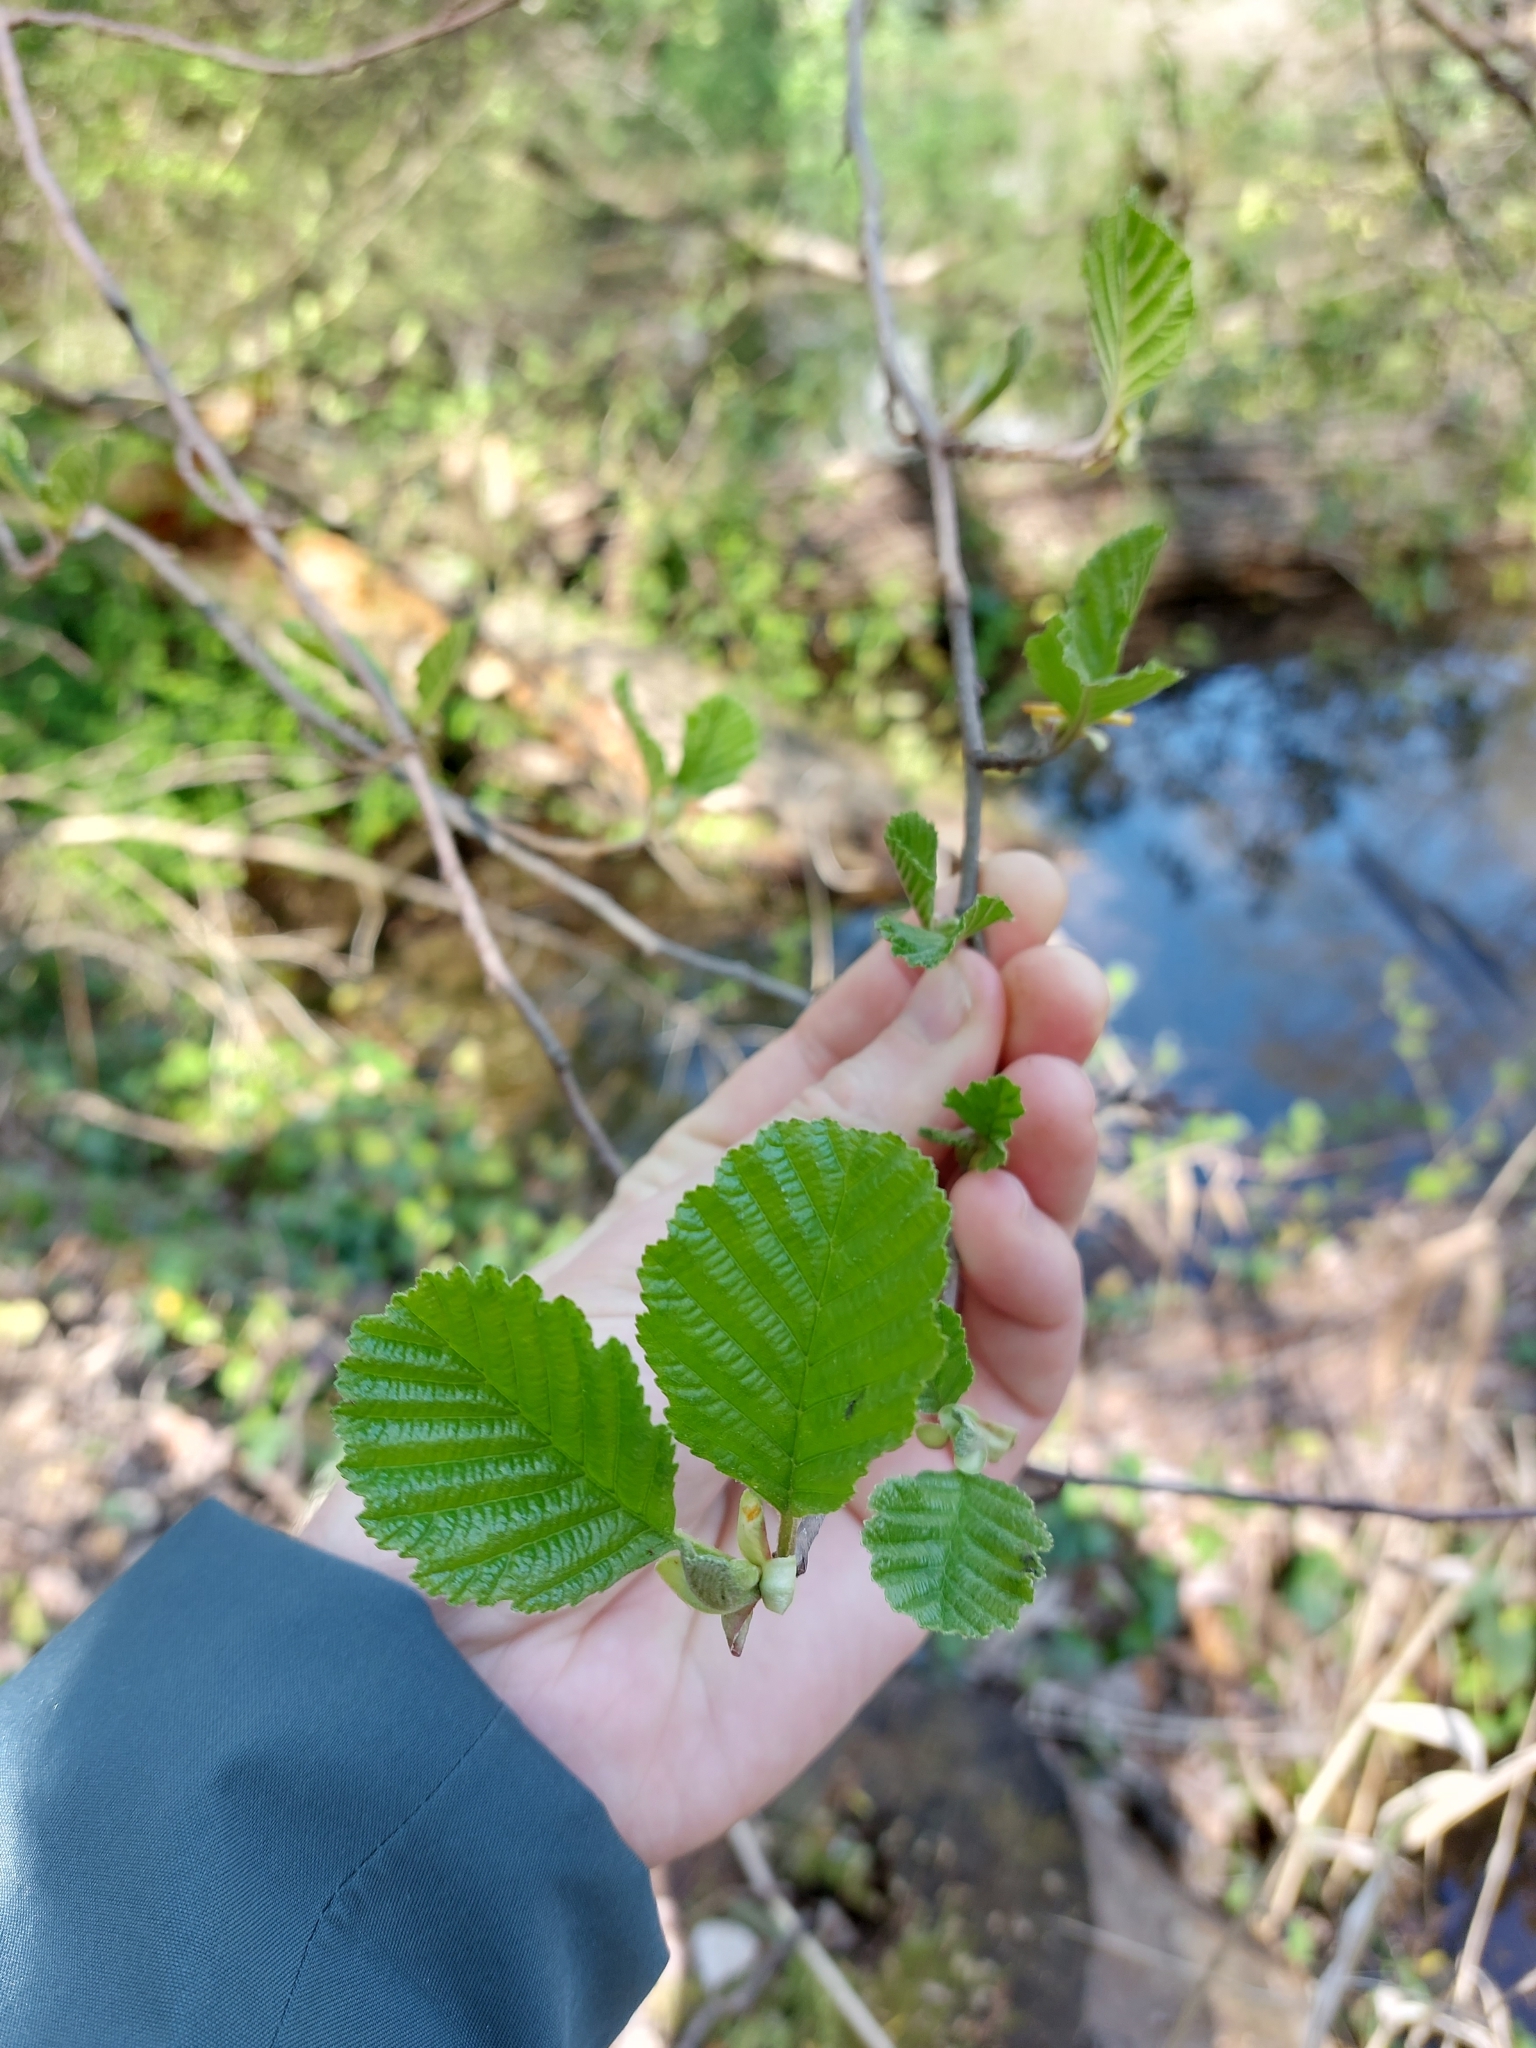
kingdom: Plantae
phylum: Tracheophyta
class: Magnoliopsida
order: Fagales
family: Betulaceae
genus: Alnus
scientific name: Alnus glutinosa
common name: Black alder
